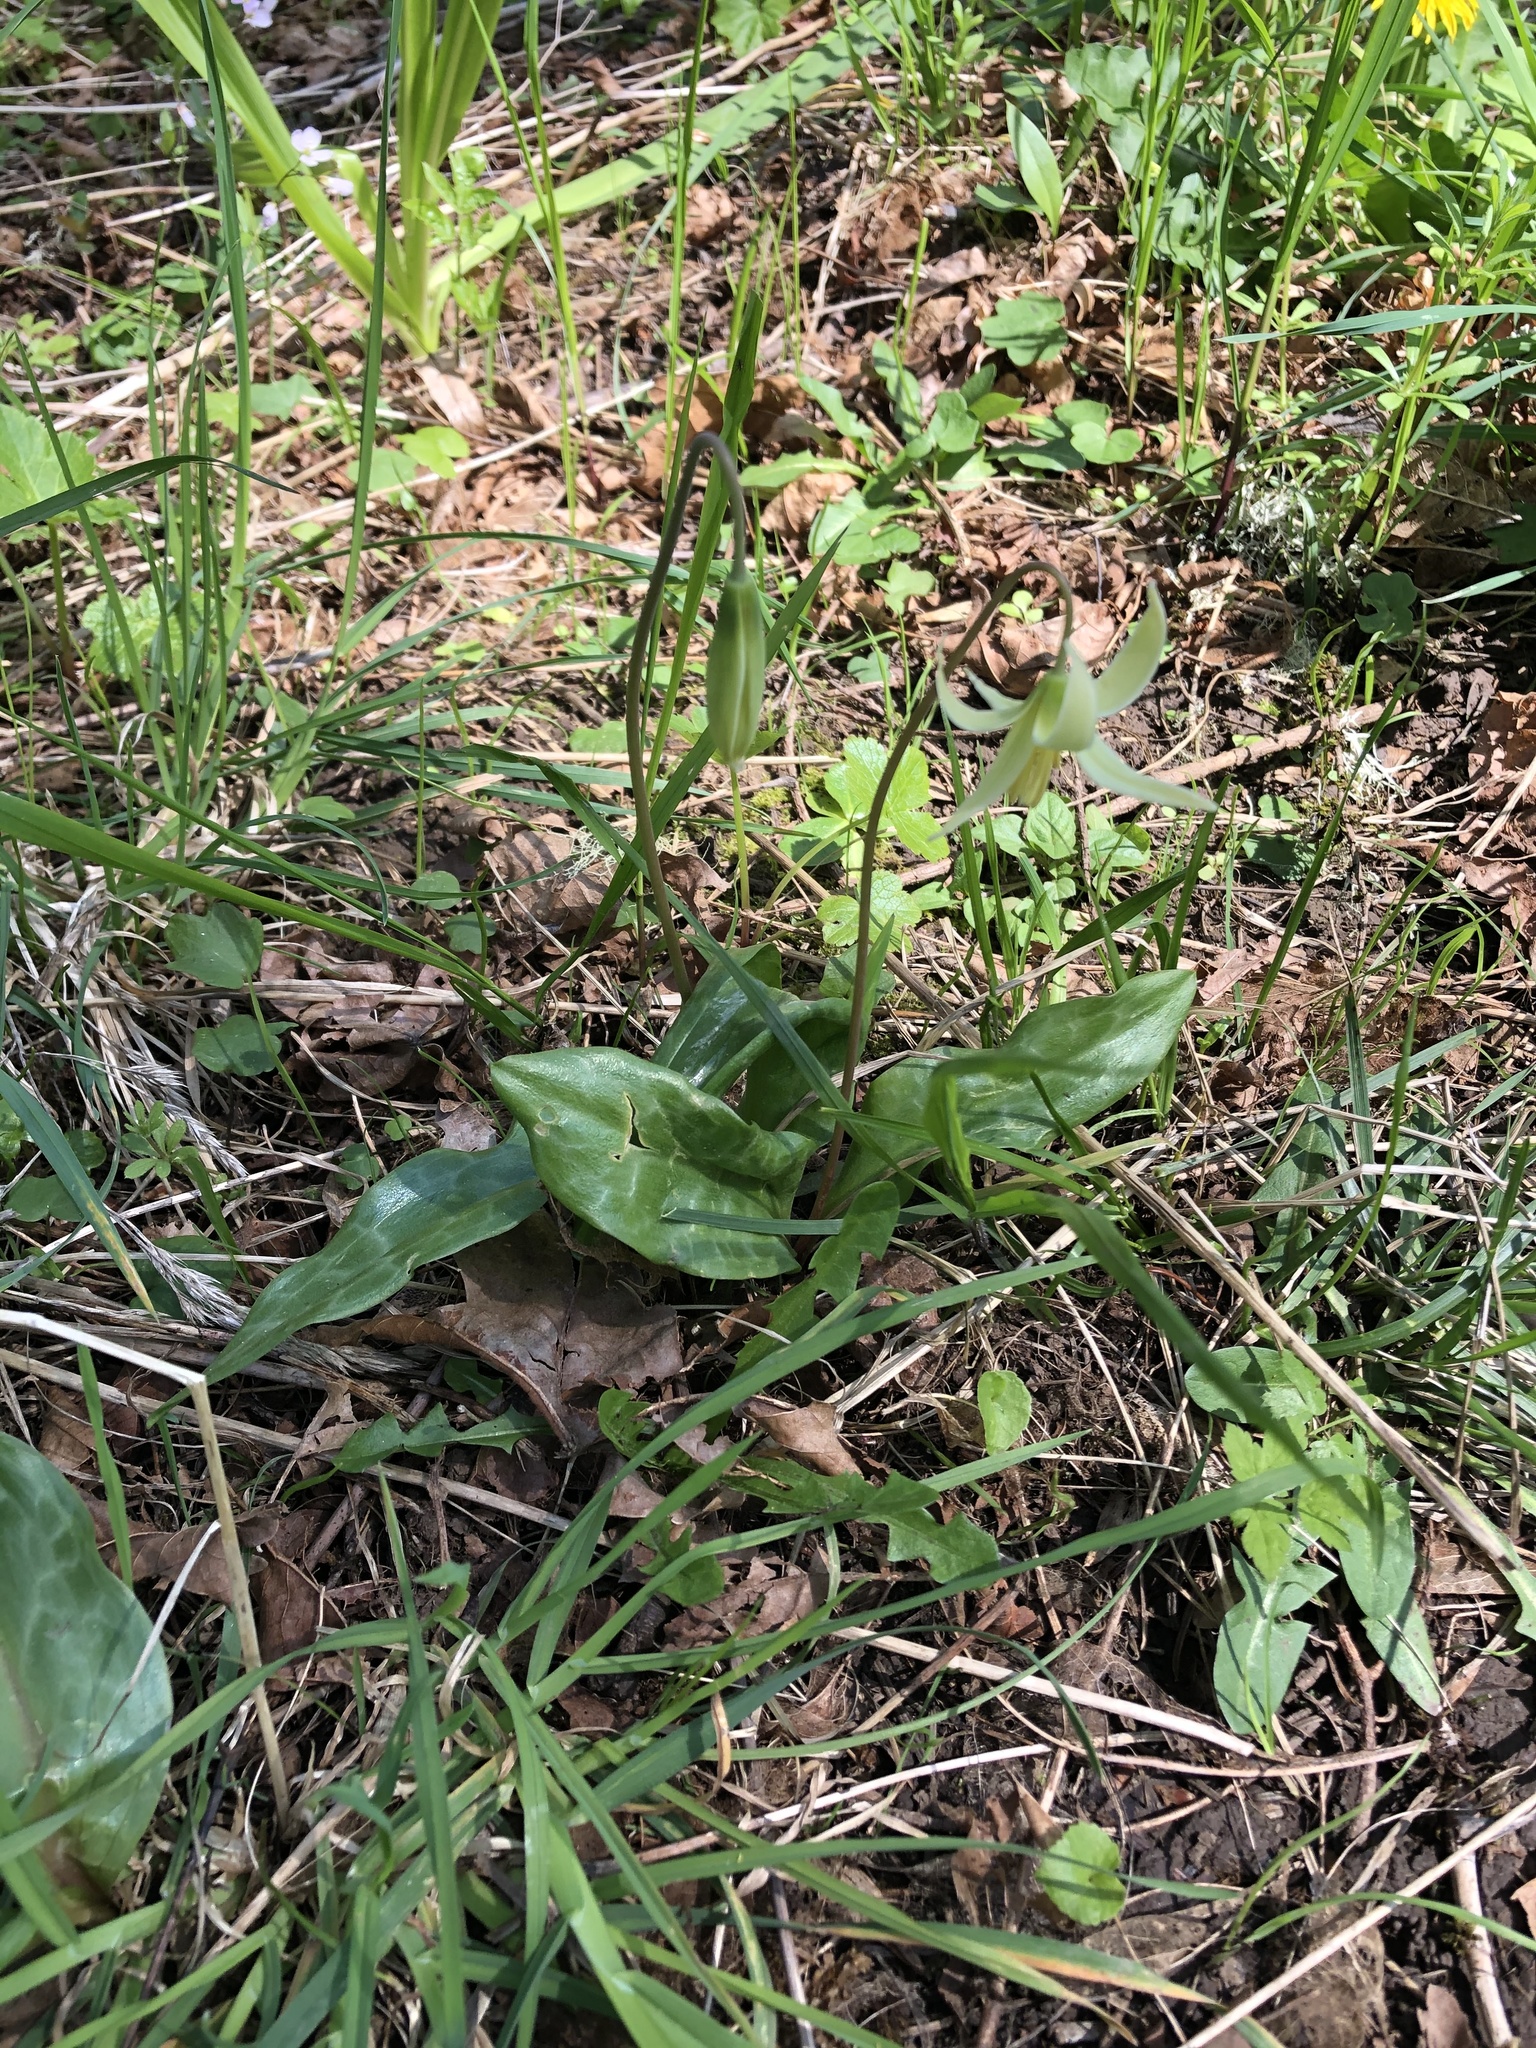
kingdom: Plantae
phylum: Tracheophyta
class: Liliopsida
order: Liliales
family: Liliaceae
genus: Erythronium
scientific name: Erythronium oregonum
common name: Giant adder's-tongue
